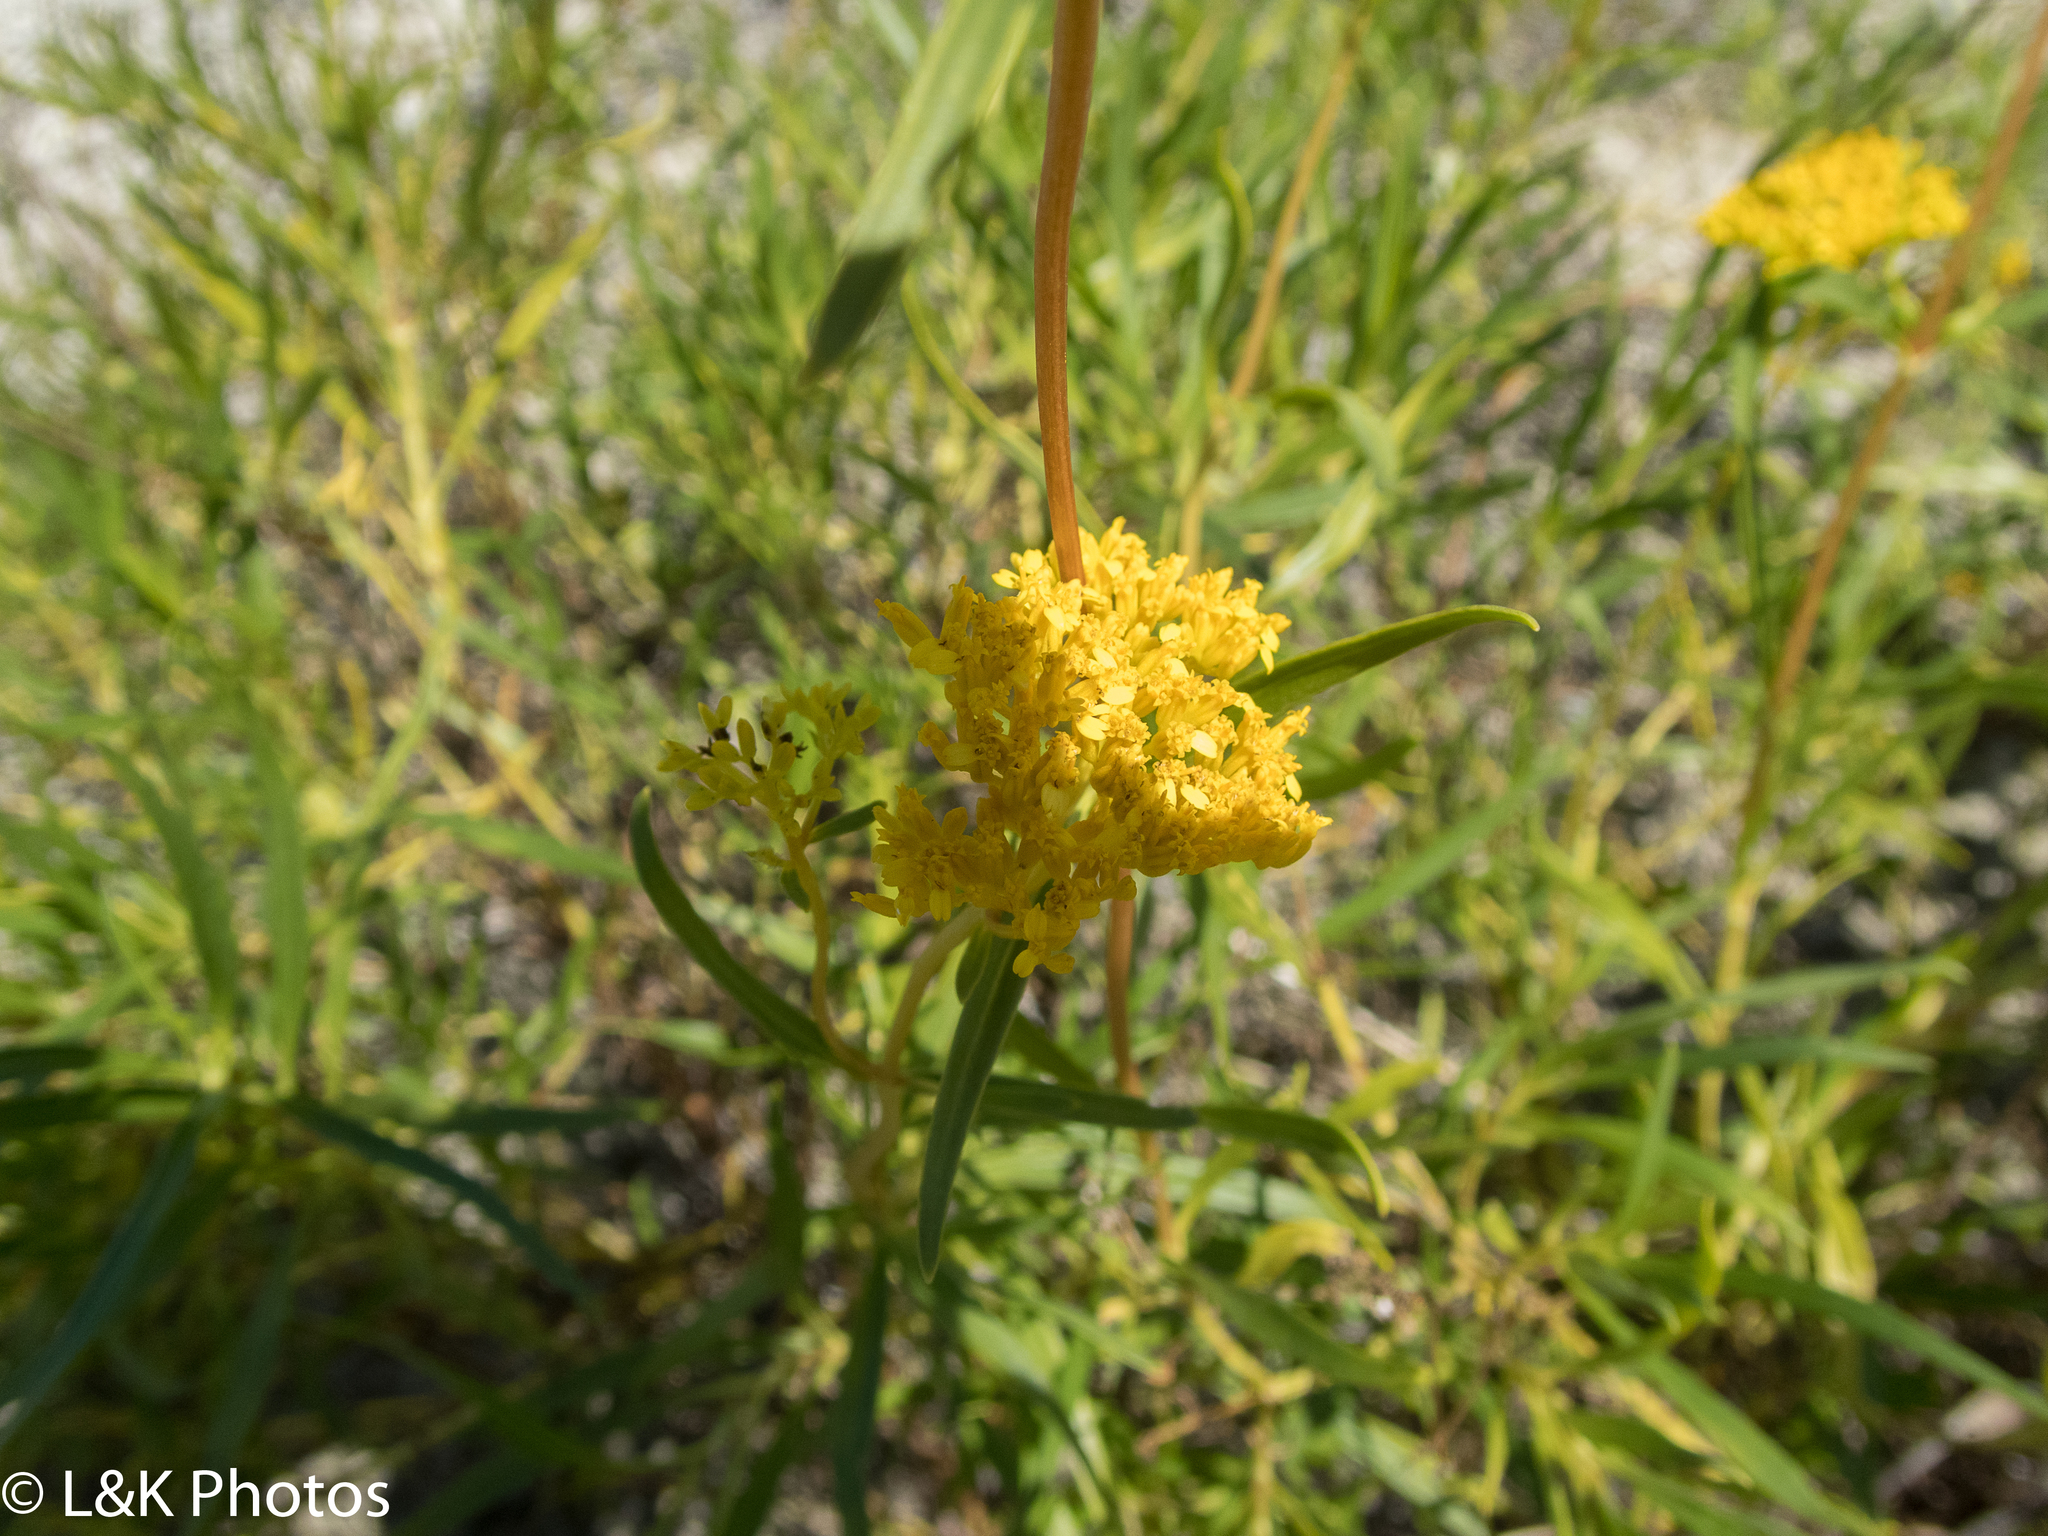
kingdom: Plantae
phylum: Tracheophyta
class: Magnoliopsida
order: Asterales
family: Asteraceae
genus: Flaveria
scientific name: Flaveria linearis
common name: Yellowtop
